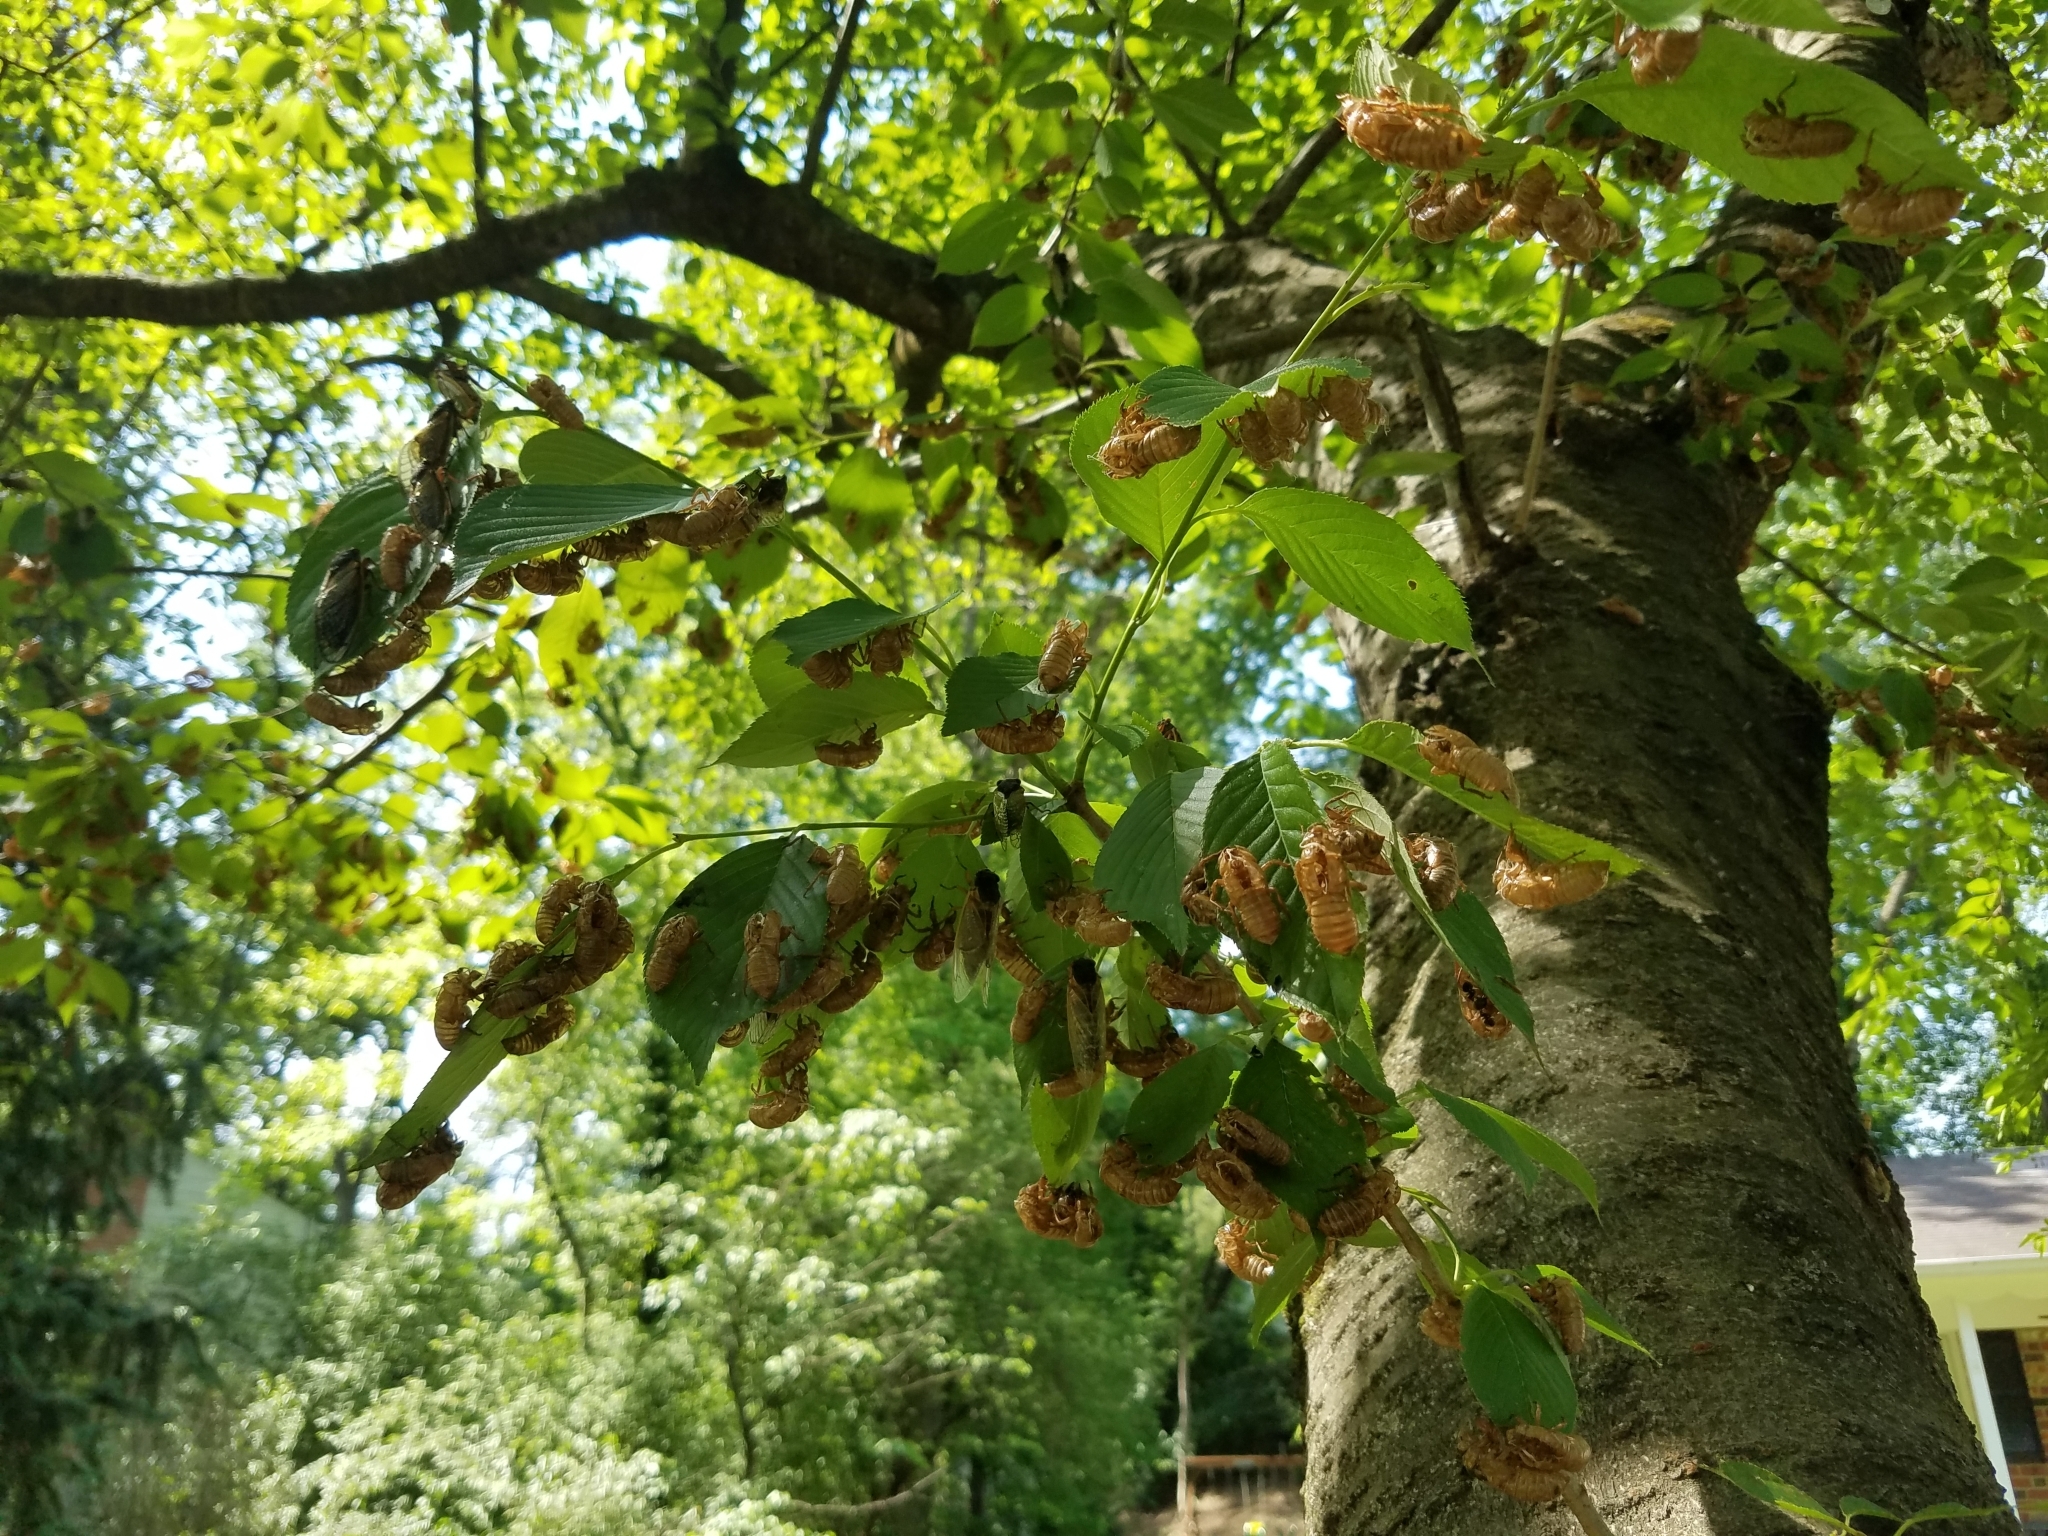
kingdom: Animalia
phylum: Arthropoda
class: Insecta
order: Hemiptera
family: Cicadidae
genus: Magicicada
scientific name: Magicicada
